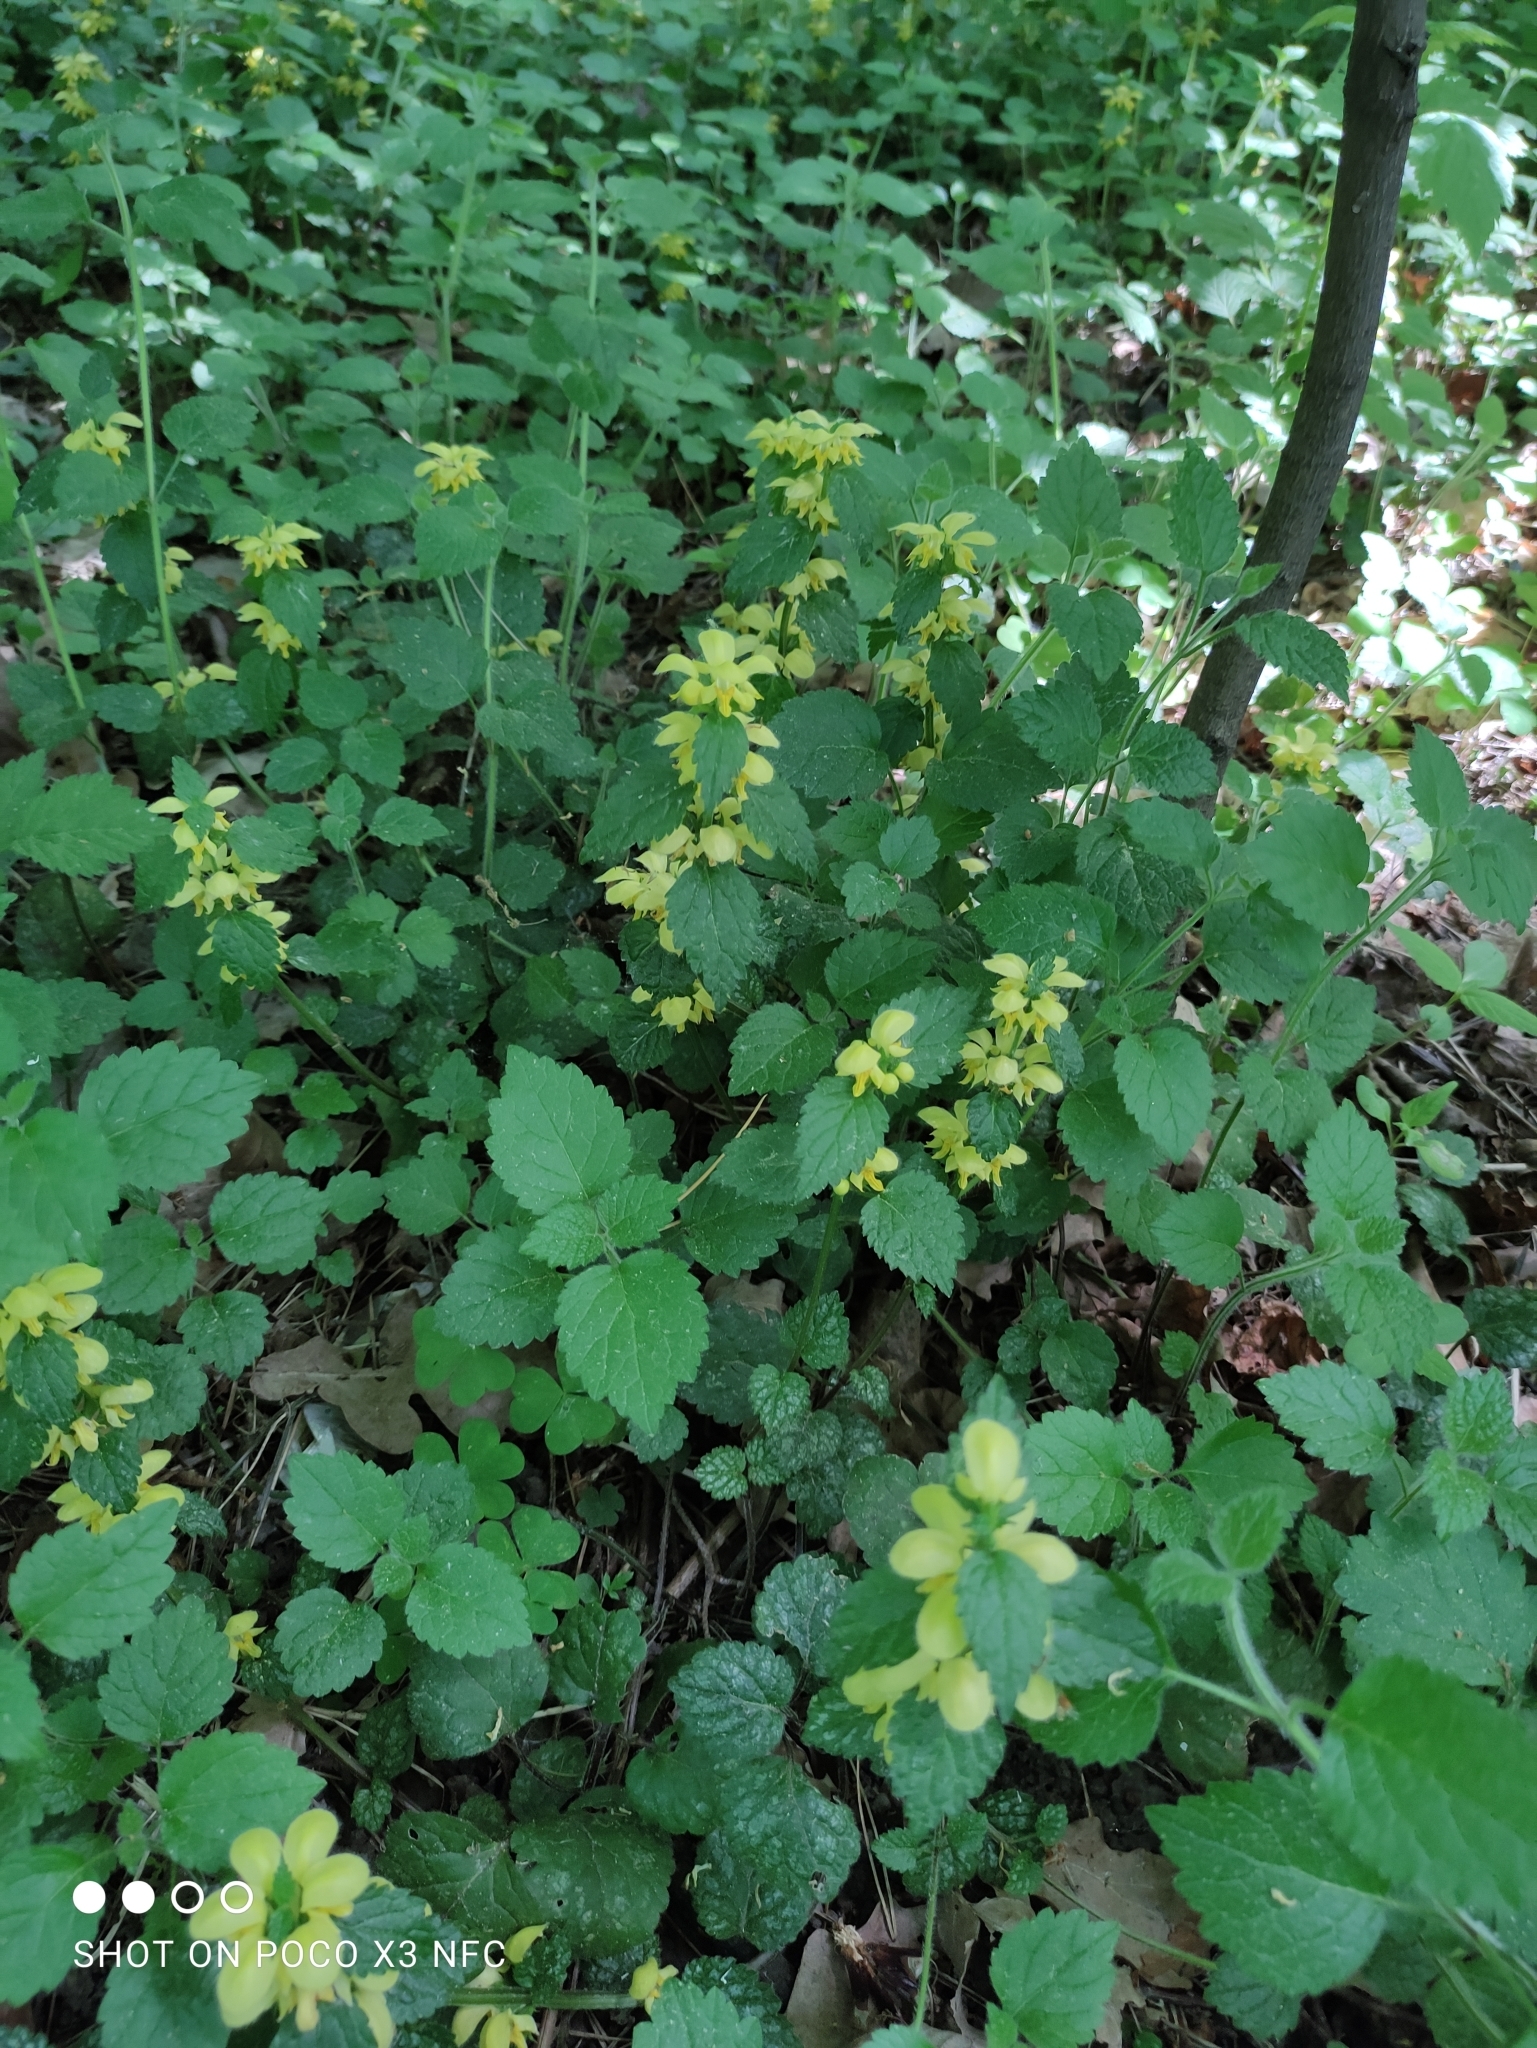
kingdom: Plantae
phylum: Tracheophyta
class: Magnoliopsida
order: Lamiales
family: Lamiaceae
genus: Lamium
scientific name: Lamium galeobdolon
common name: Yellow archangel
